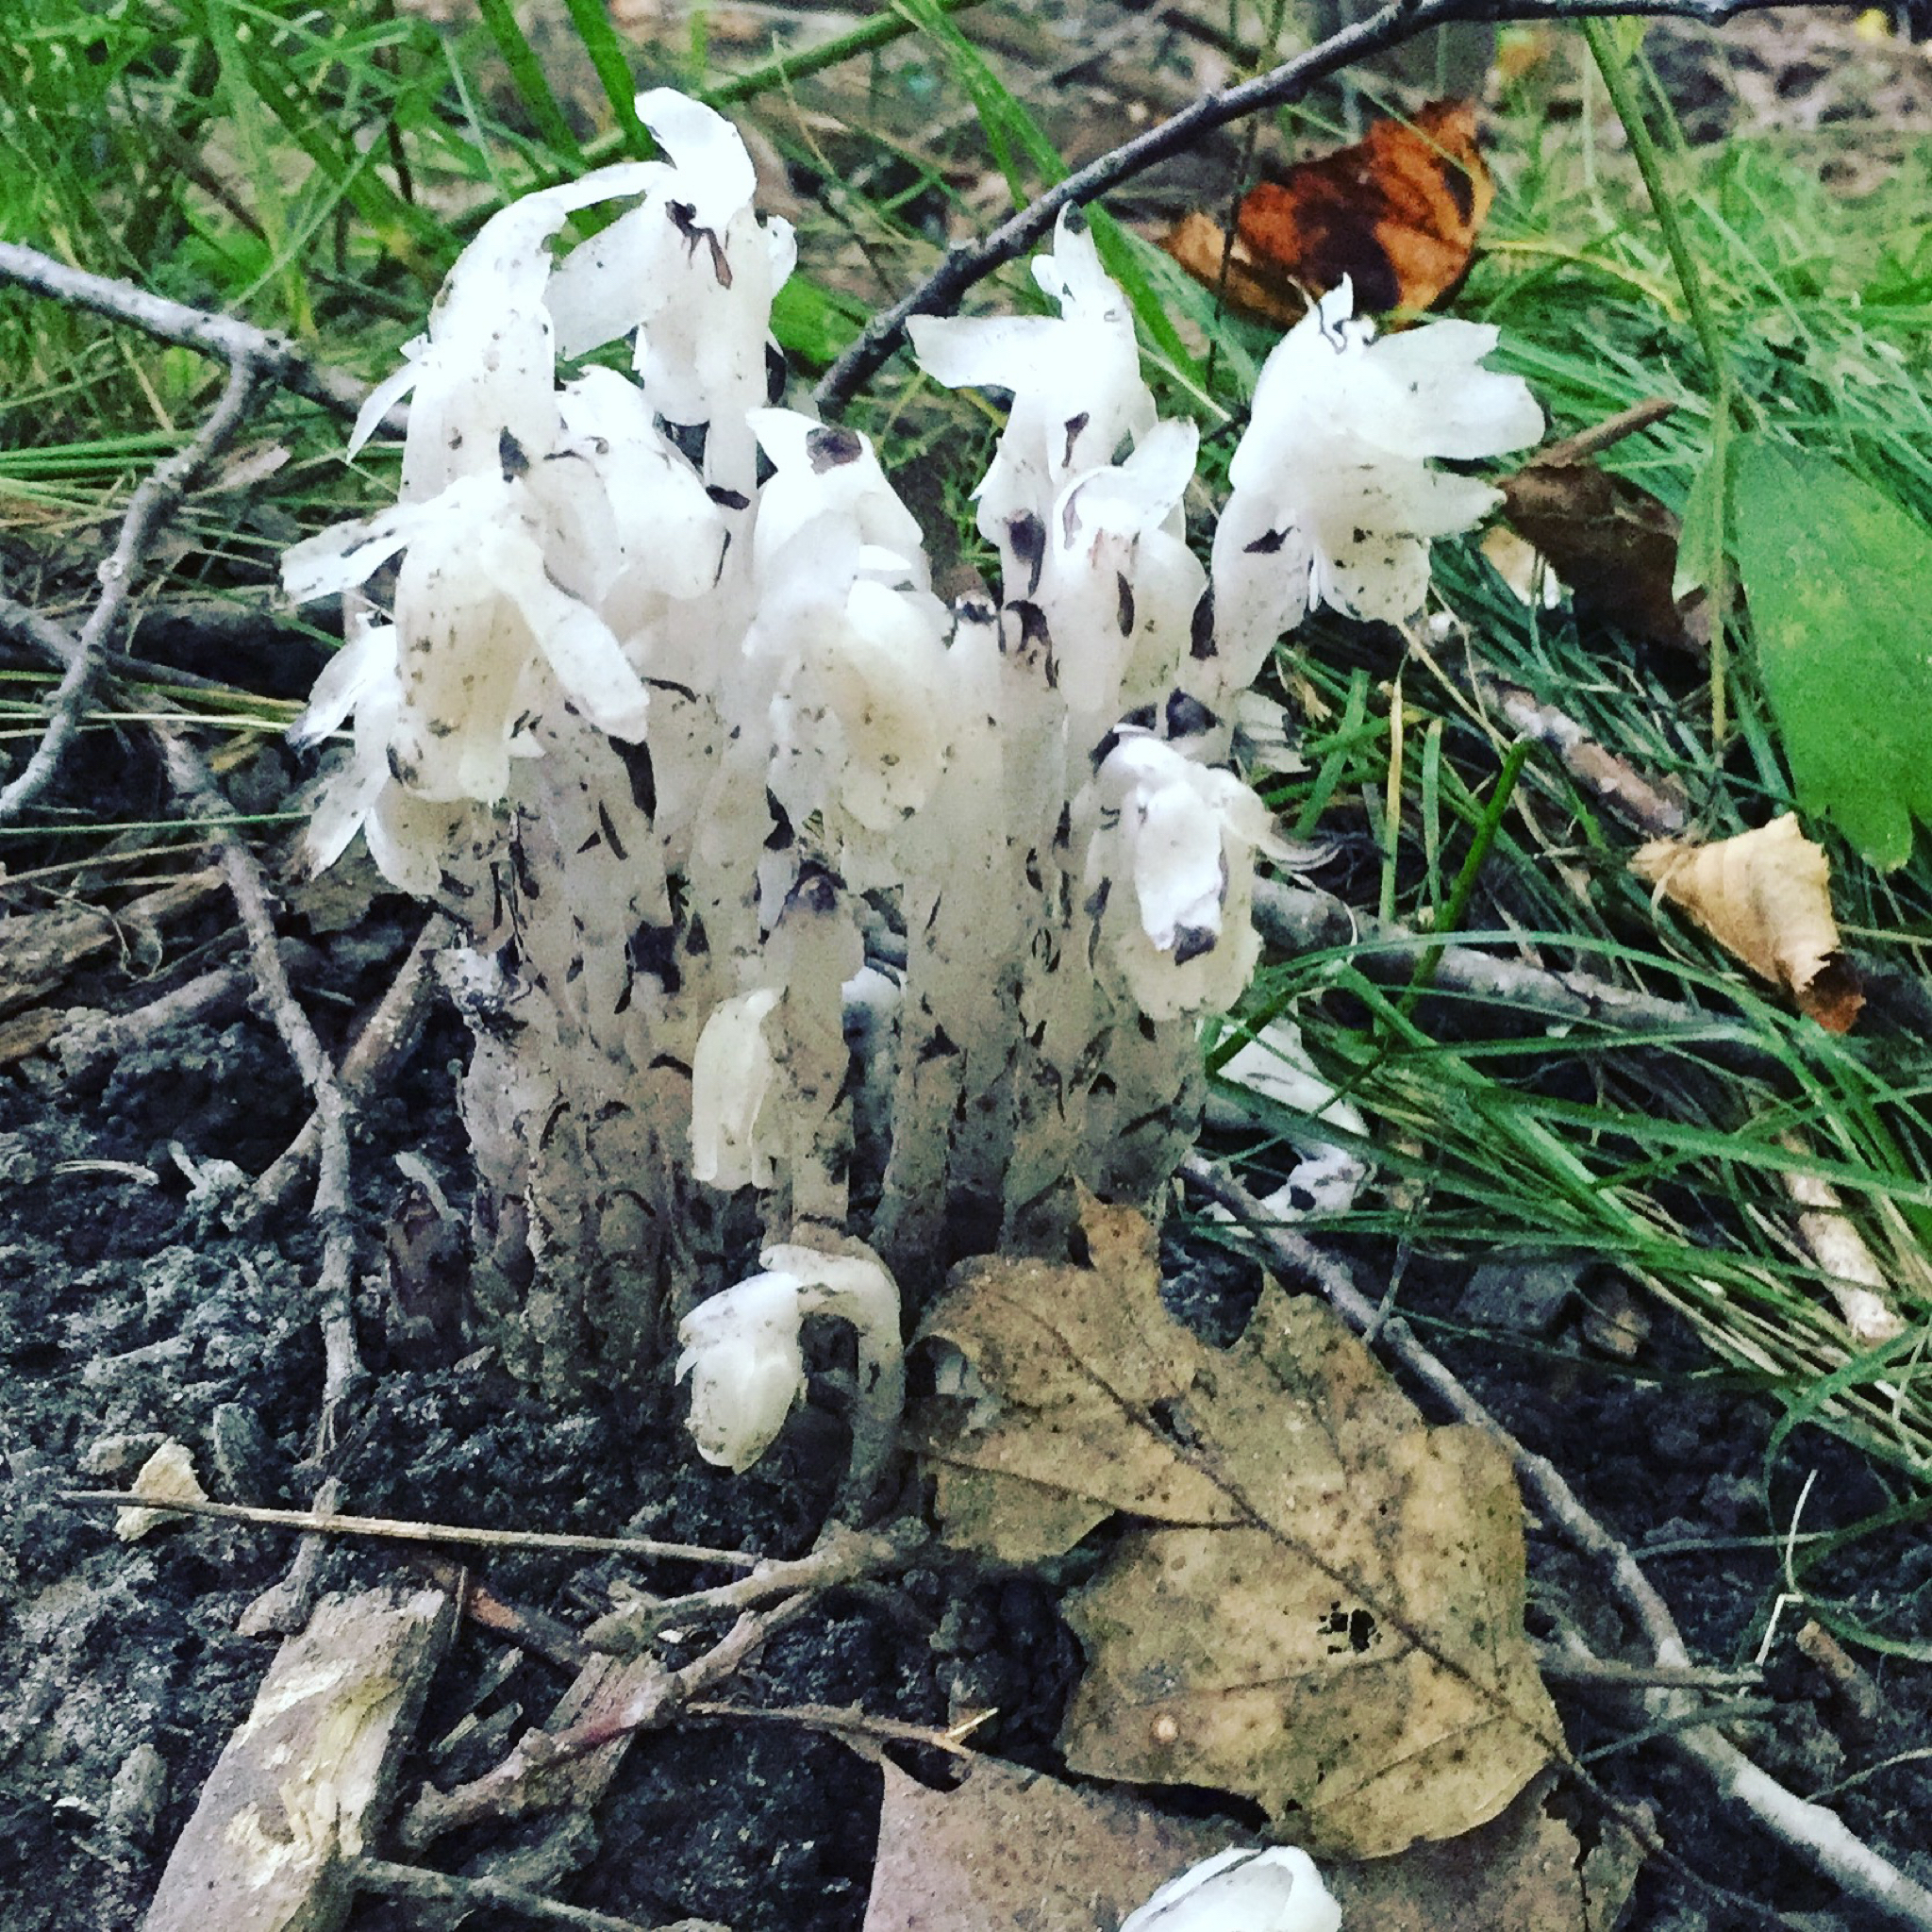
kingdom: Plantae
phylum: Tracheophyta
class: Magnoliopsida
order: Ericales
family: Ericaceae
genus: Monotropa
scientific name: Monotropa uniflora
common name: Convulsion root
